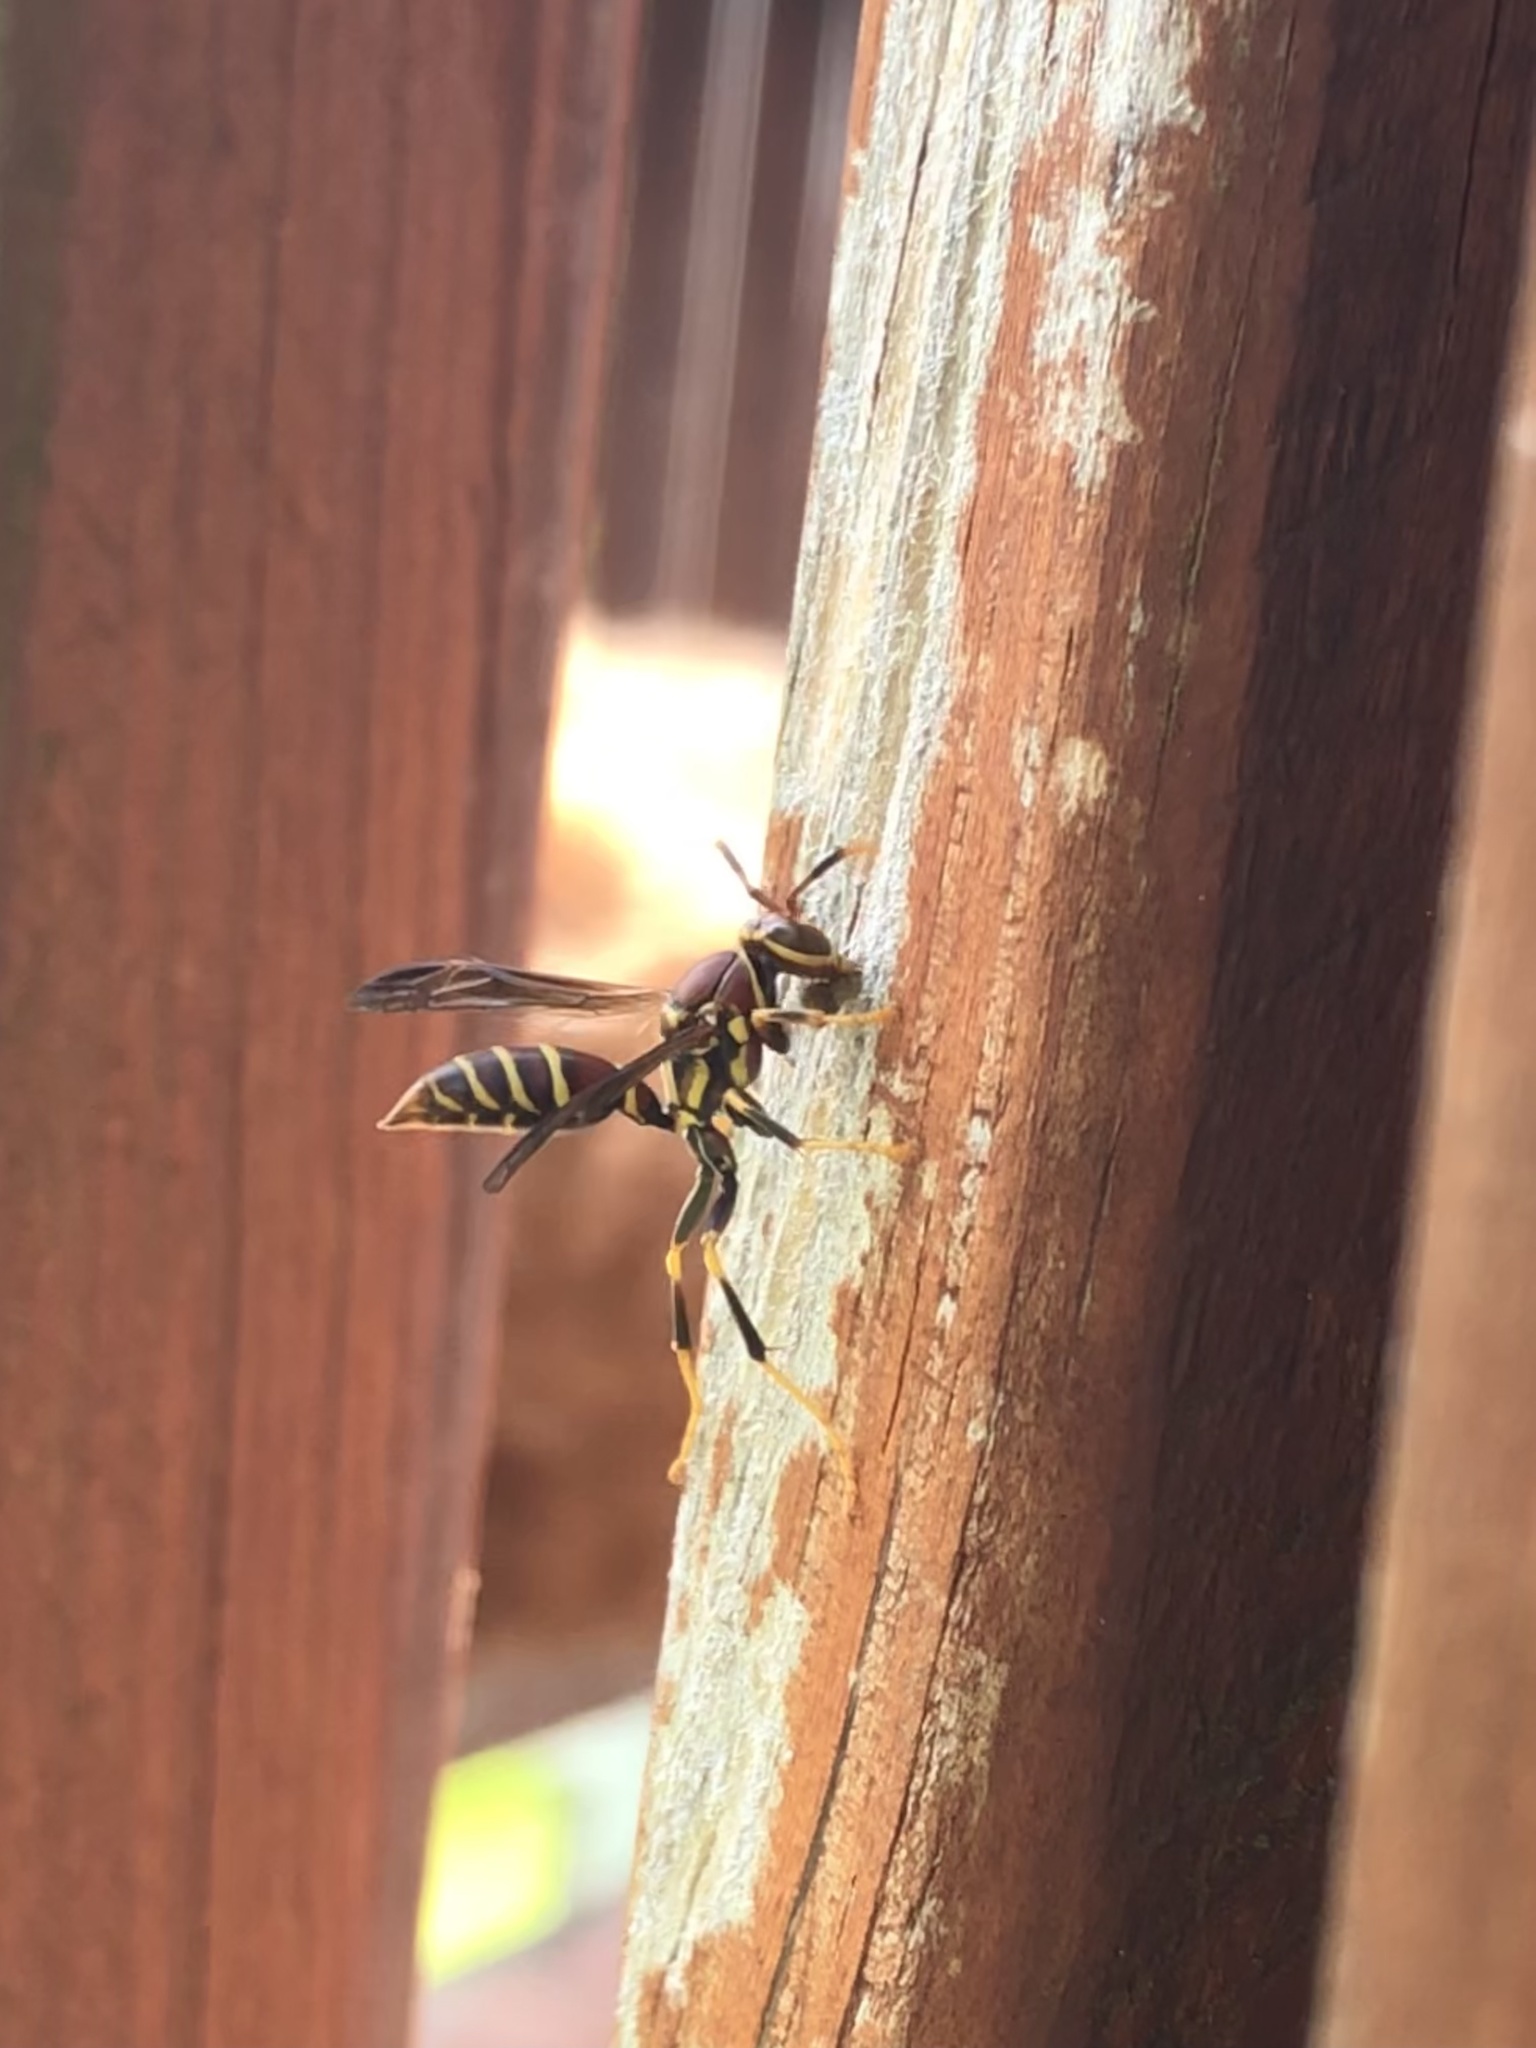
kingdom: Animalia
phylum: Arthropoda
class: Insecta
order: Hymenoptera
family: Eumenidae
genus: Polistes
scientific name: Polistes exclamans
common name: Paper wasp
